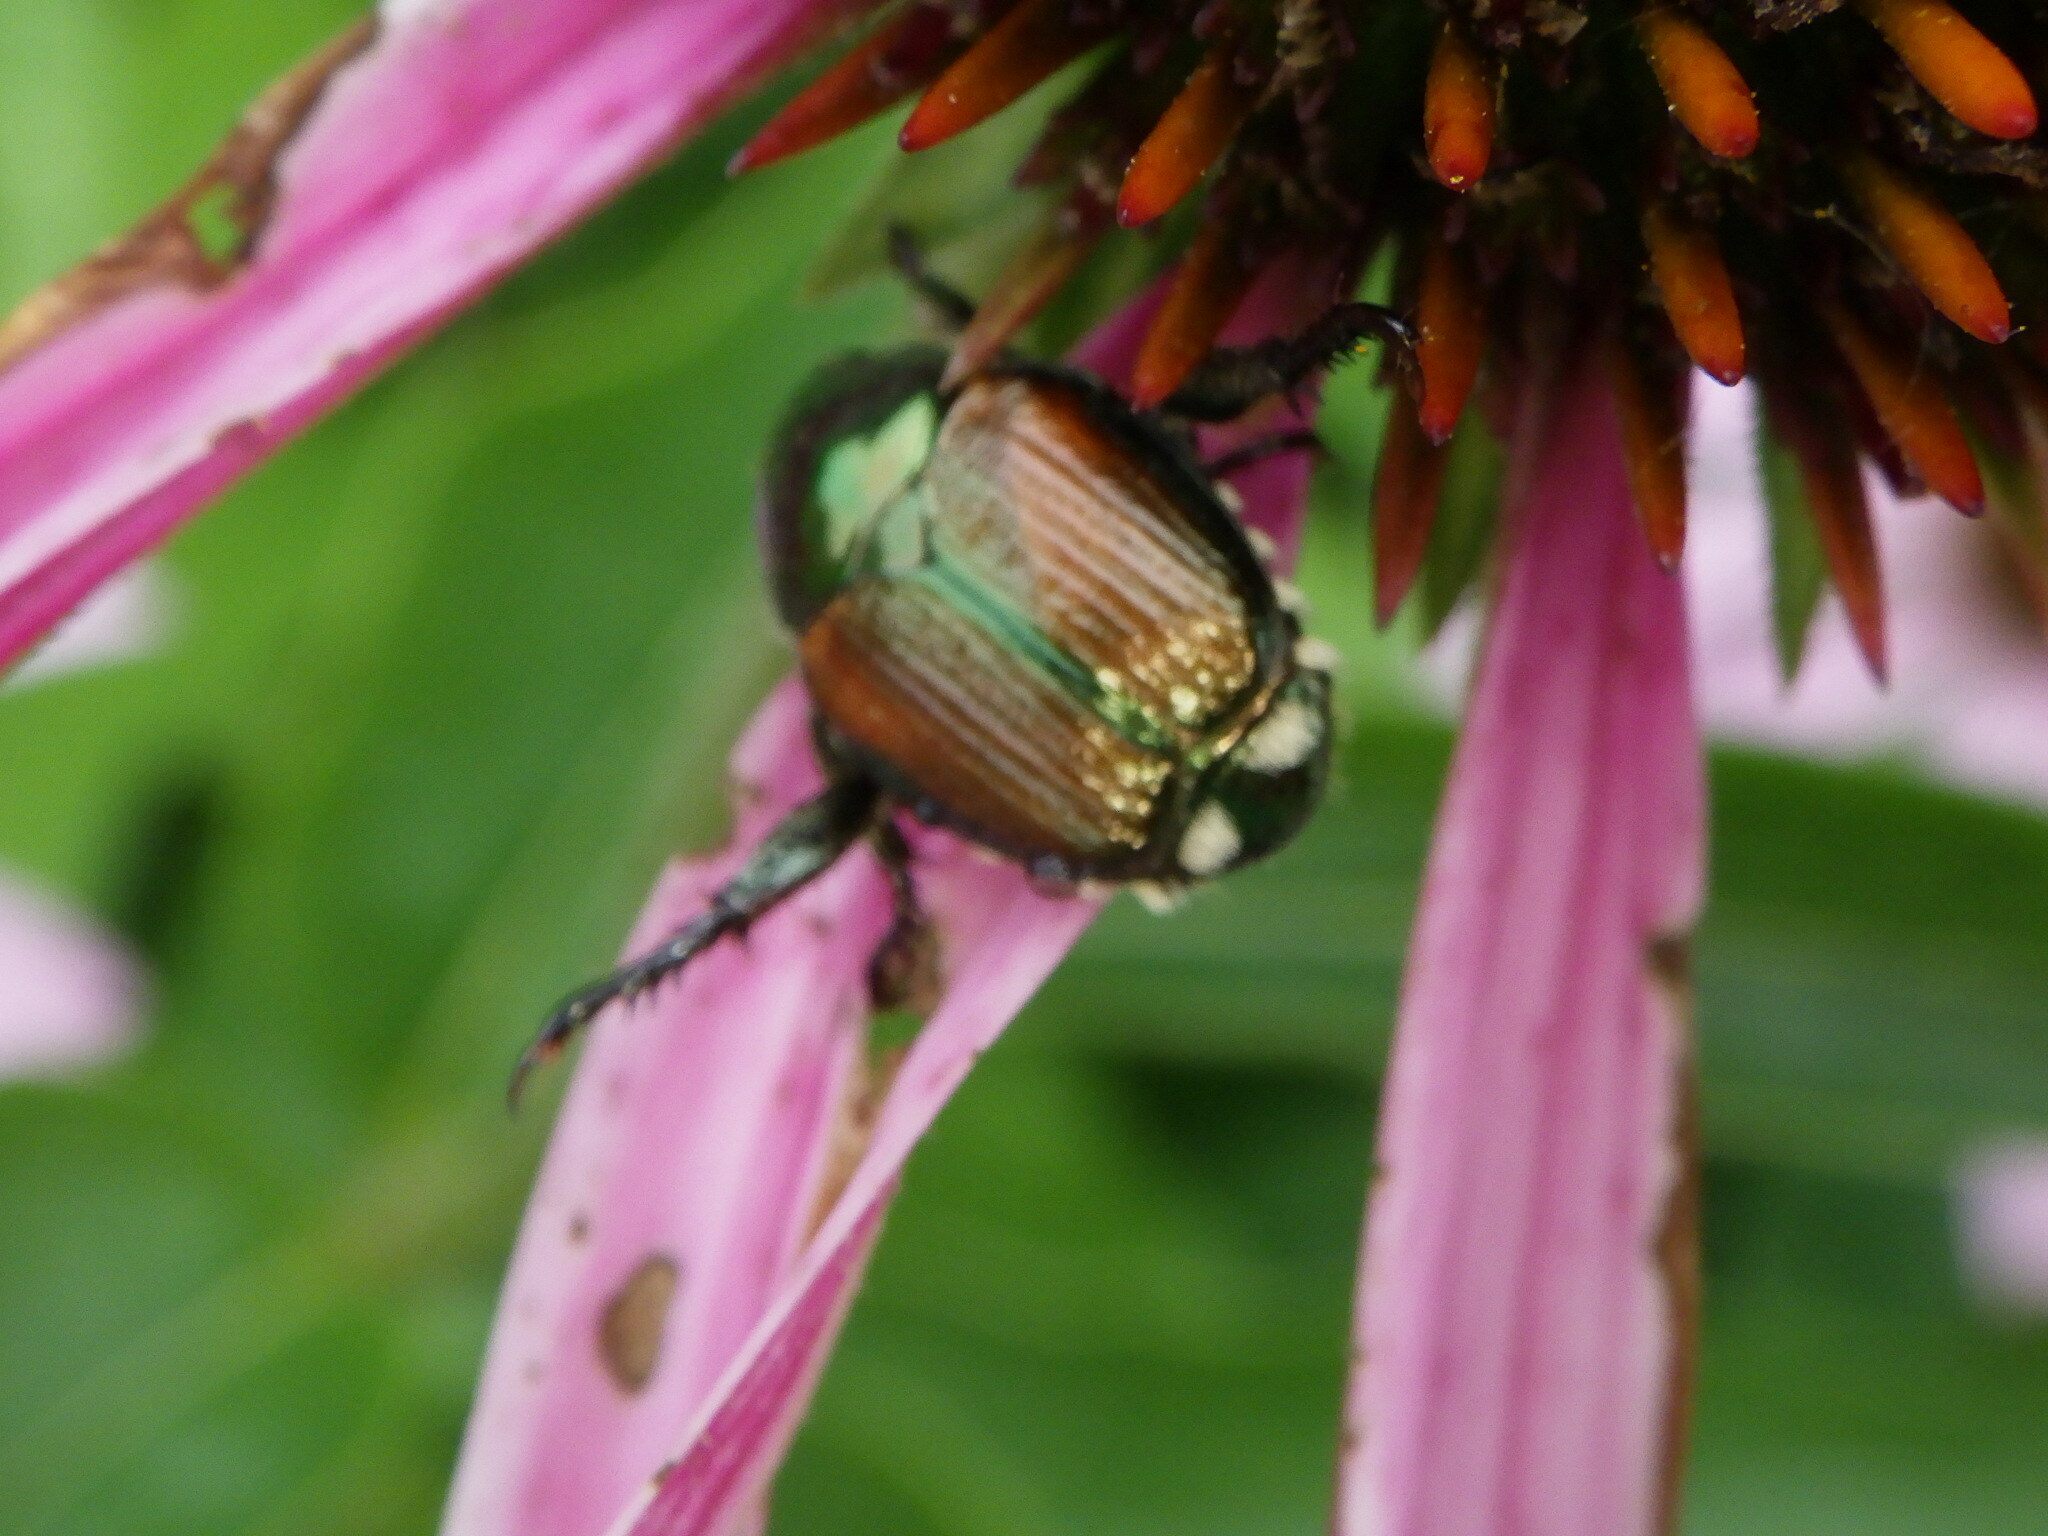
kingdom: Animalia
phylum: Arthropoda
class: Insecta
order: Coleoptera
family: Scarabaeidae
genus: Popillia
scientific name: Popillia japonica
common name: Japanese beetle
